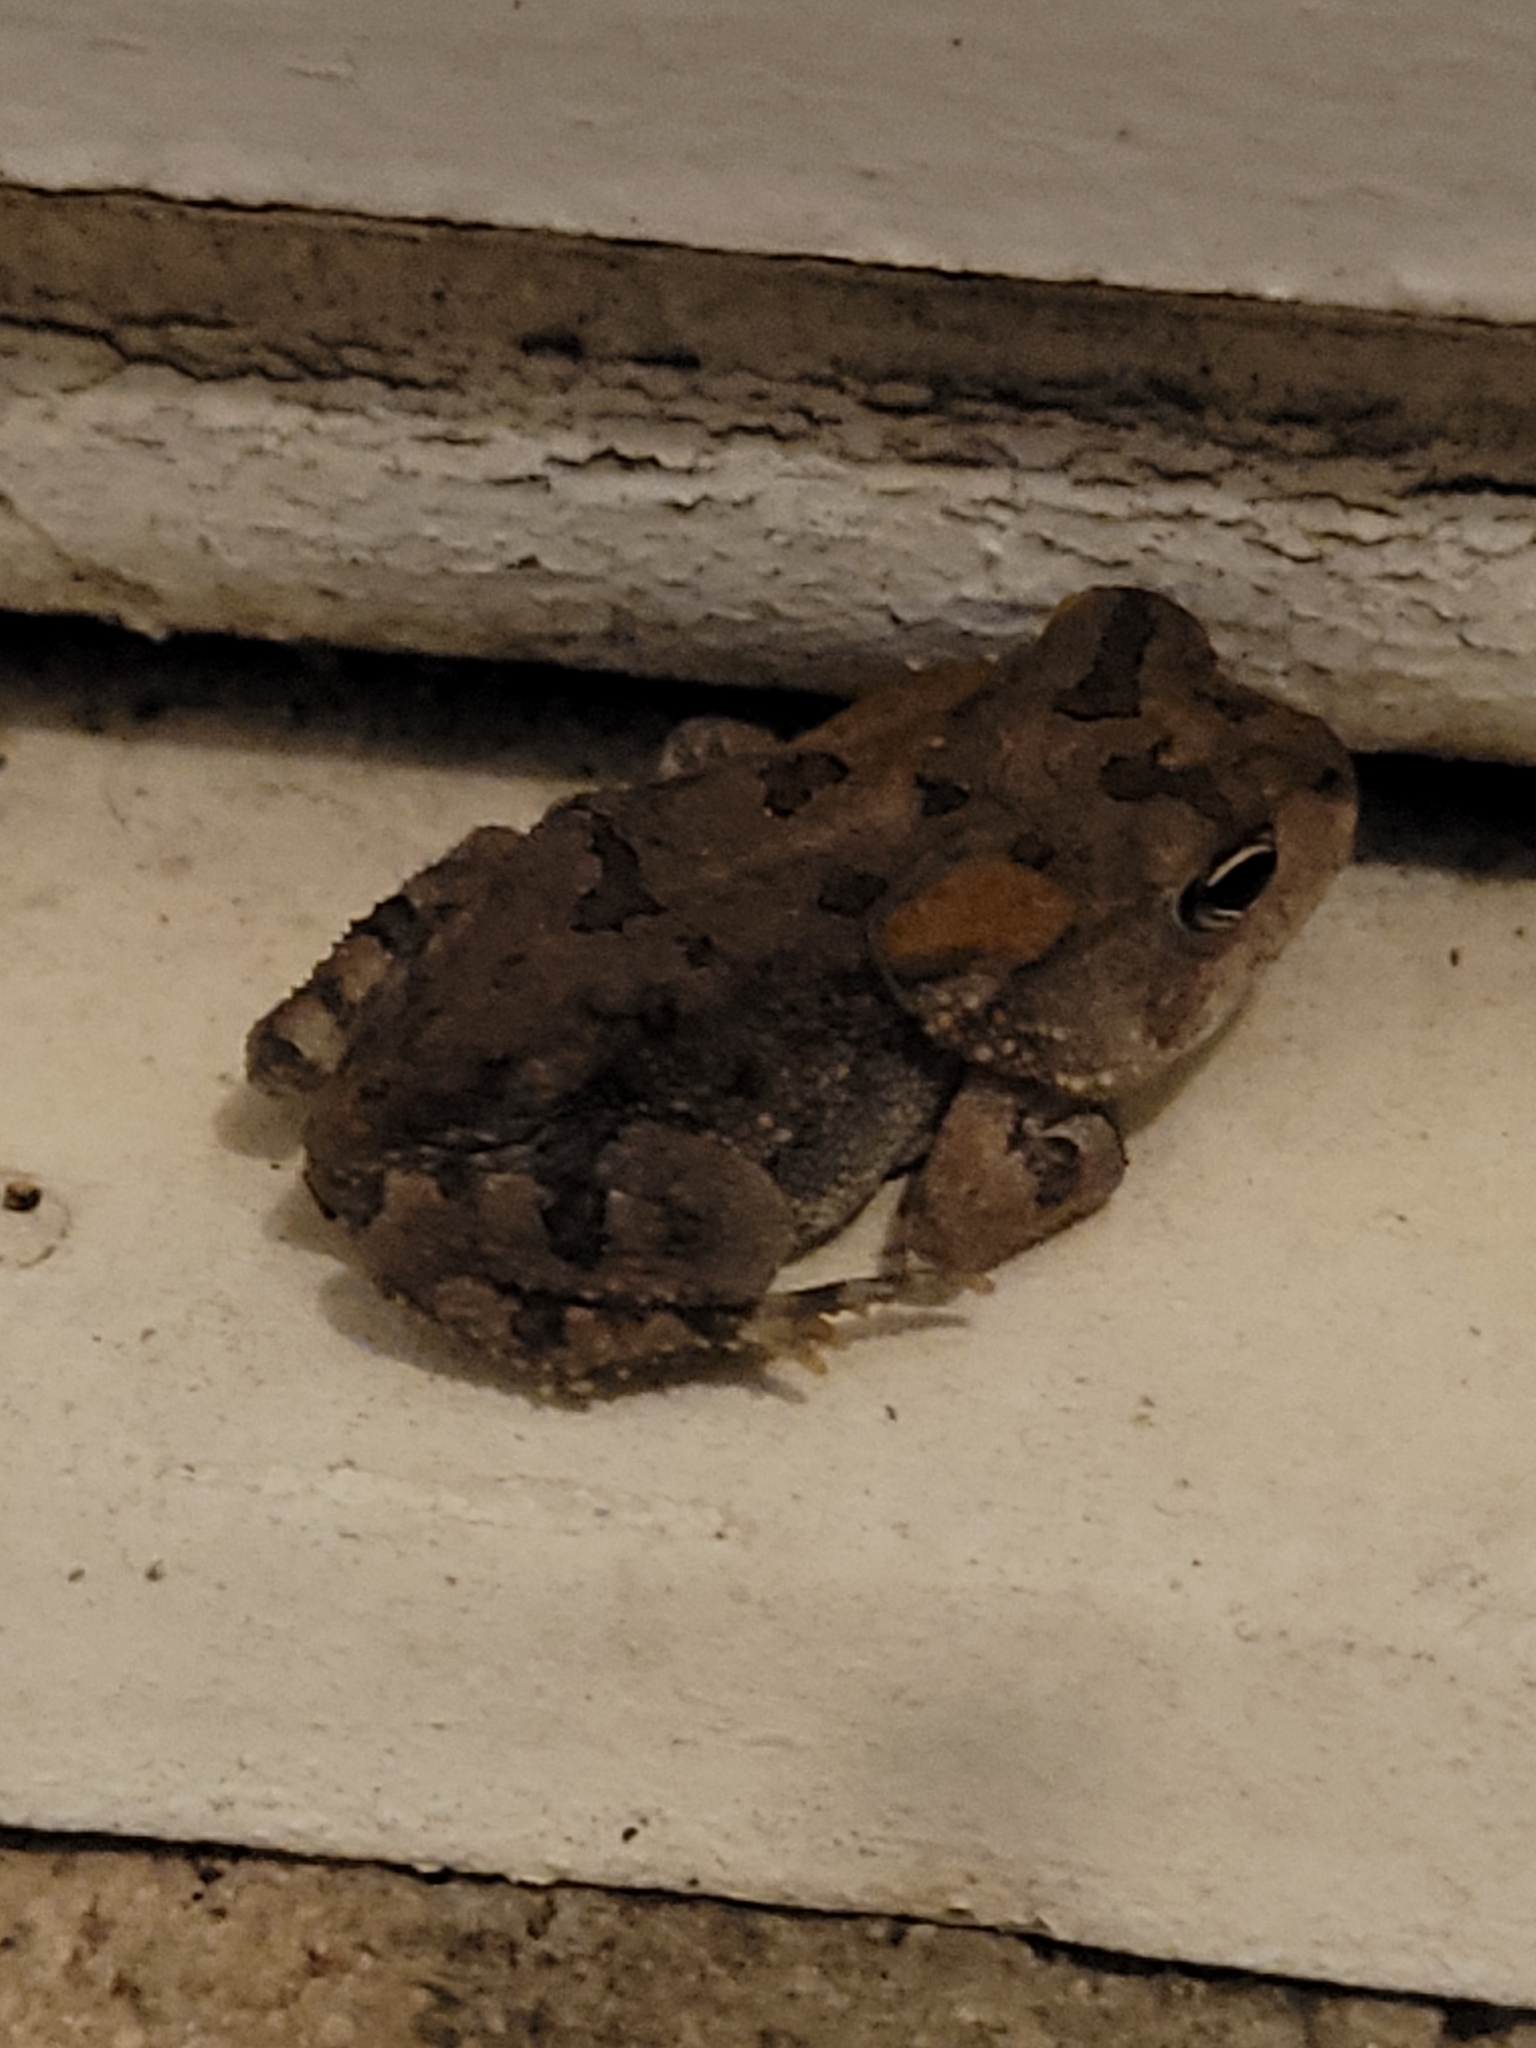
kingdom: Animalia
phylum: Chordata
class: Amphibia
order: Anura
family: Bufonidae
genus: Anaxyrus
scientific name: Anaxyrus terrestris
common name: Southern toad
